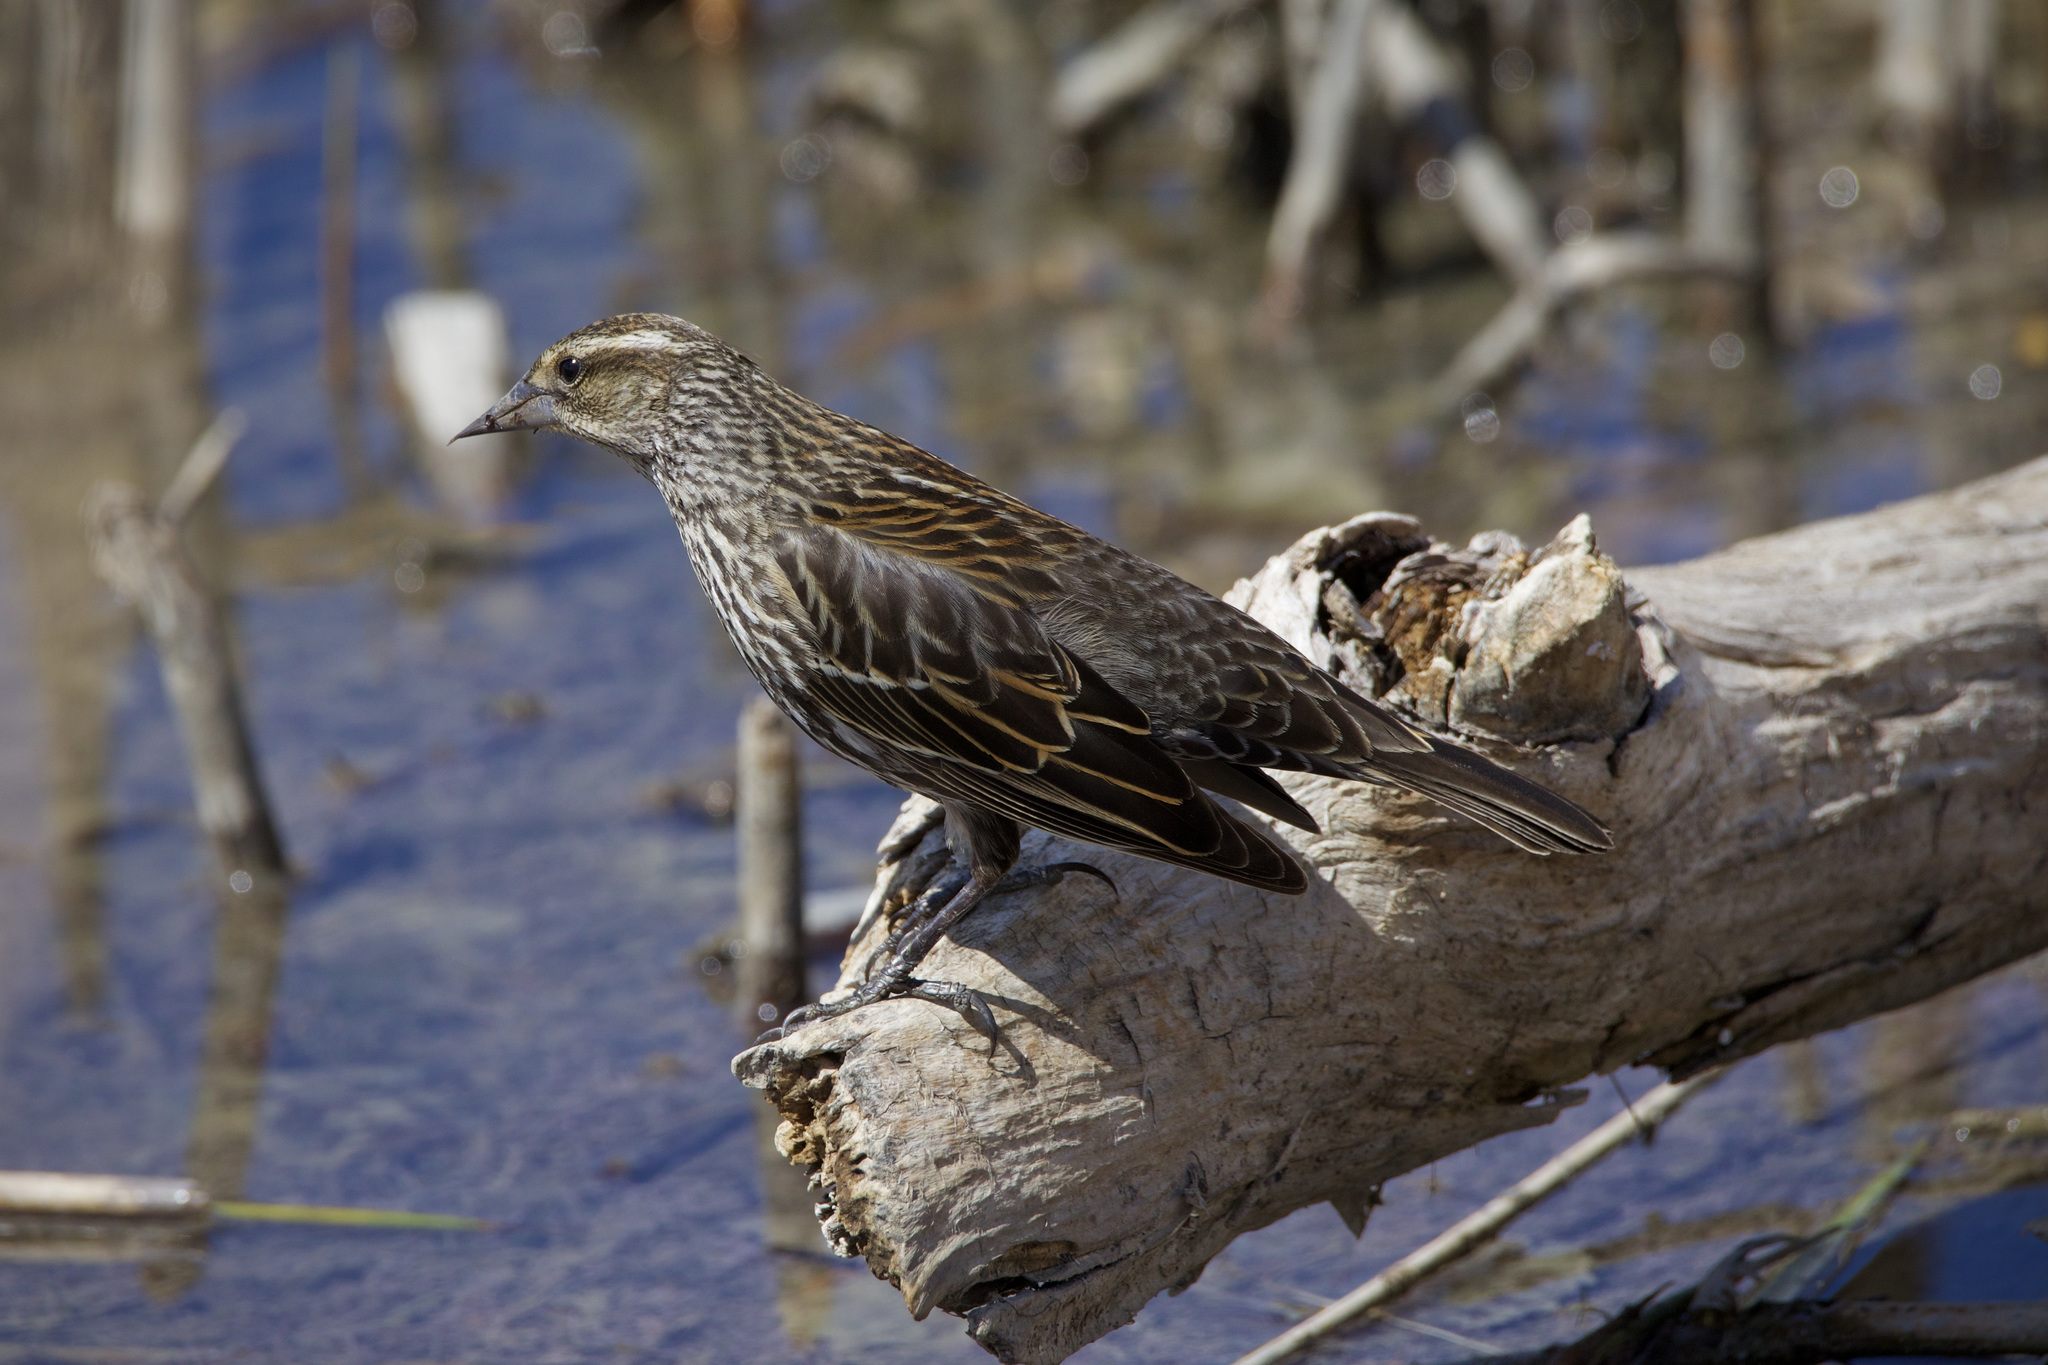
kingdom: Animalia
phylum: Chordata
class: Aves
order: Passeriformes
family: Icteridae
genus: Agelaius
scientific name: Agelaius phoeniceus
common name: Red-winged blackbird
